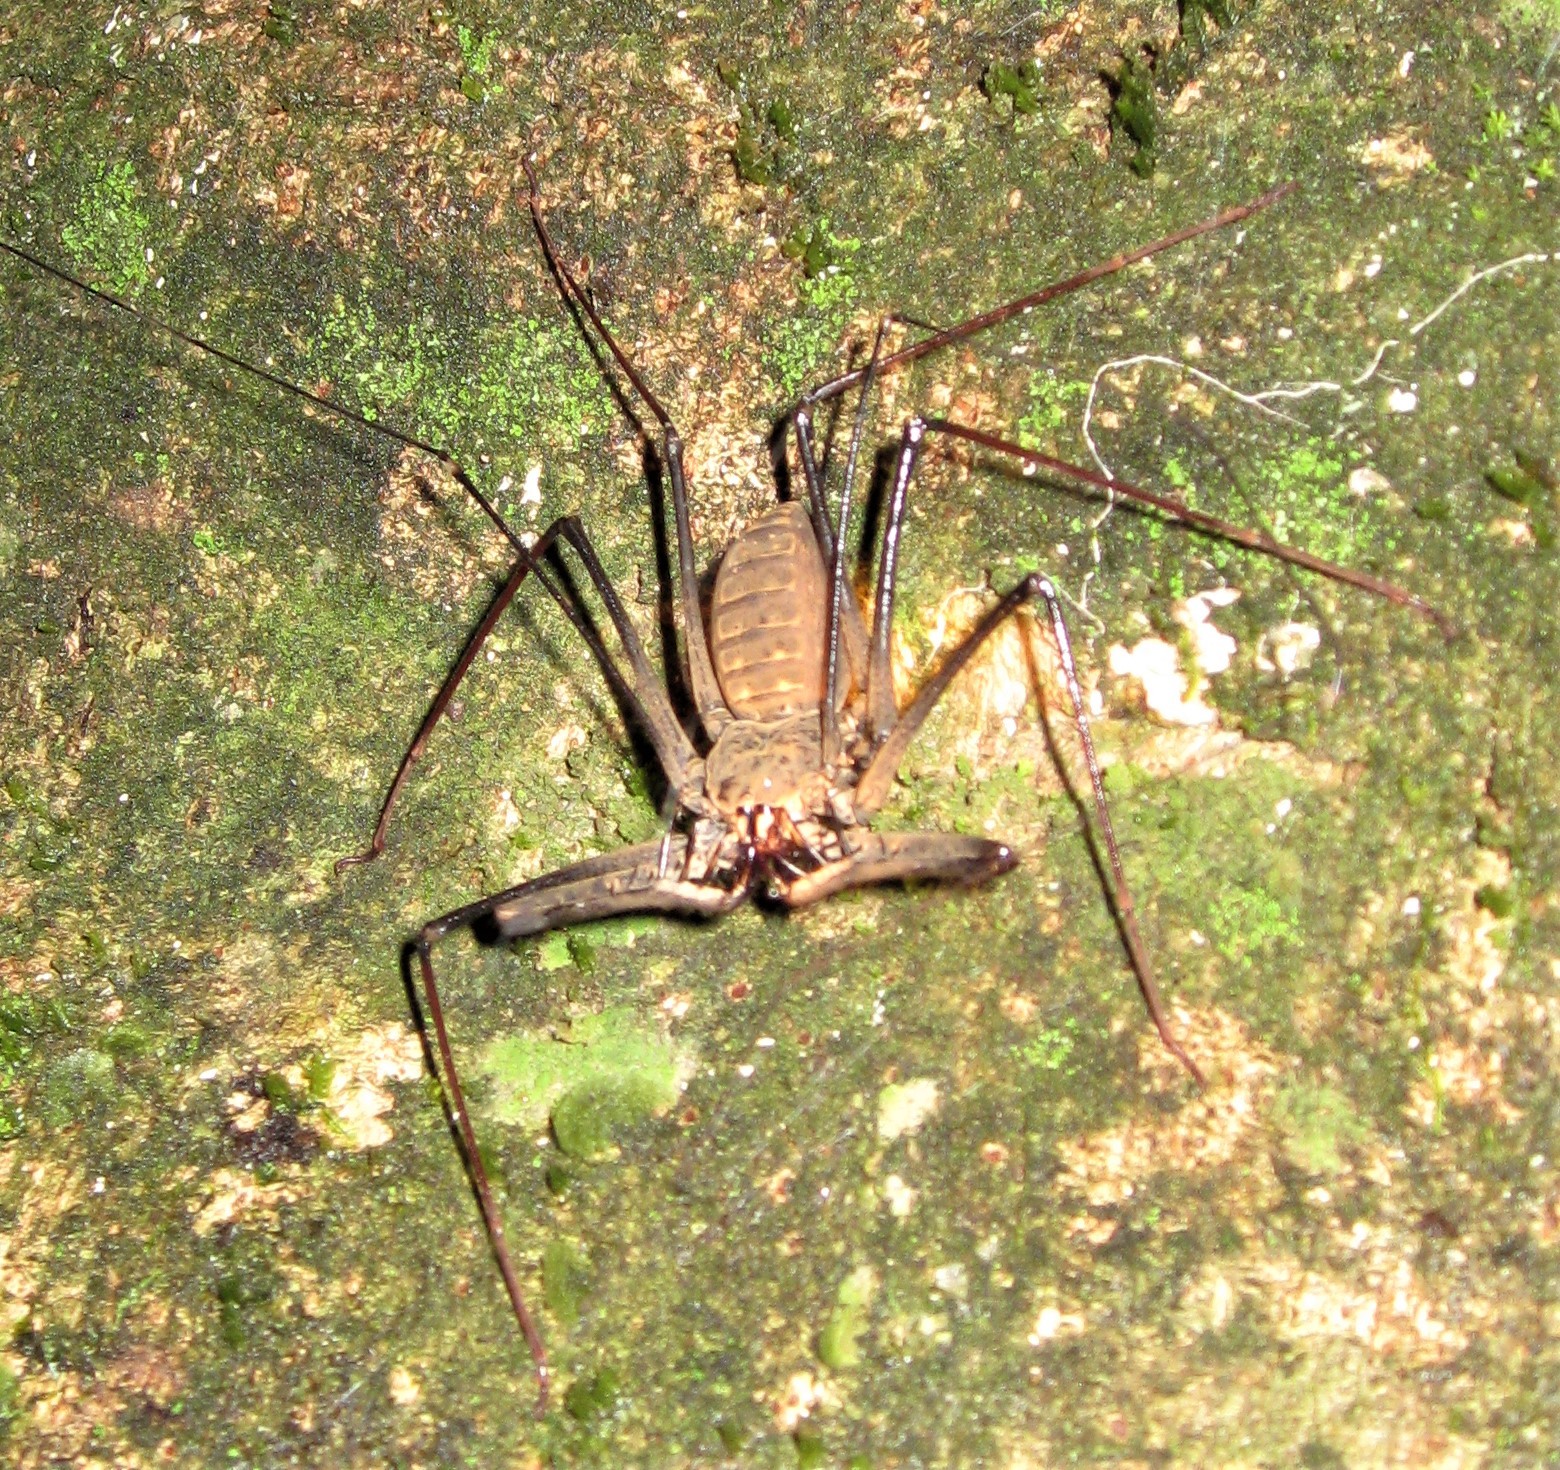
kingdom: Animalia
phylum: Arthropoda
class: Arachnida
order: Amblypygi
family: Phrynidae
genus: Heterophrynus
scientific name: Heterophrynus longicornis
